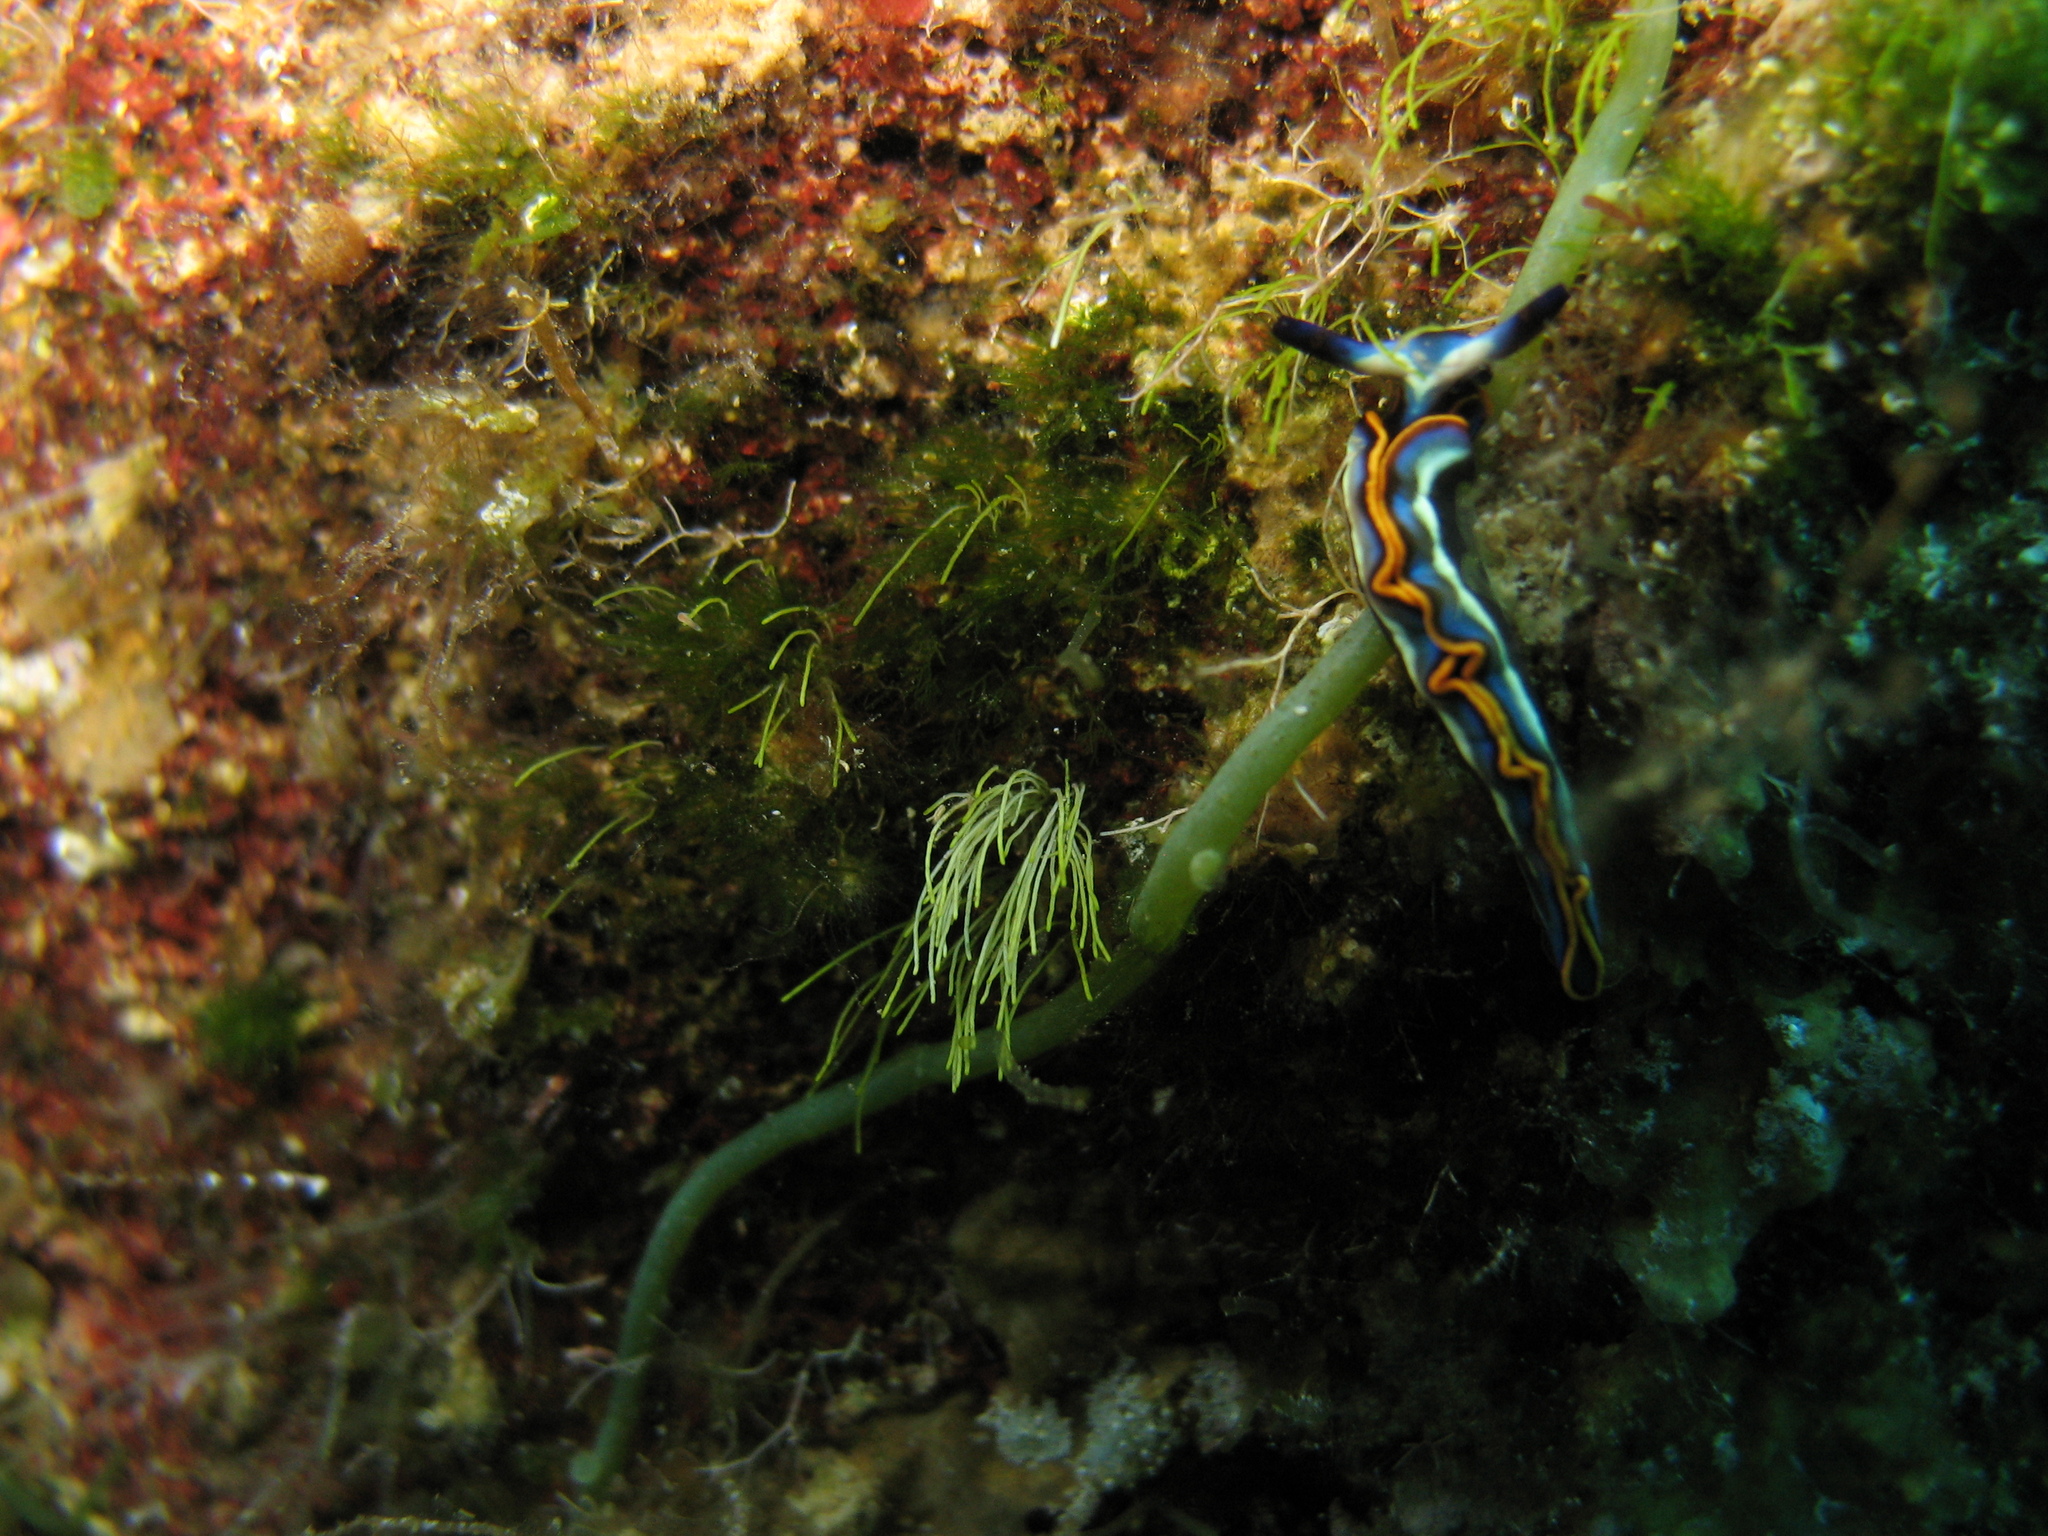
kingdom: Animalia
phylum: Mollusca
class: Gastropoda
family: Plakobranchidae
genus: Thuridilla
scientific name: Thuridilla hopei
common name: Splendid elysia
